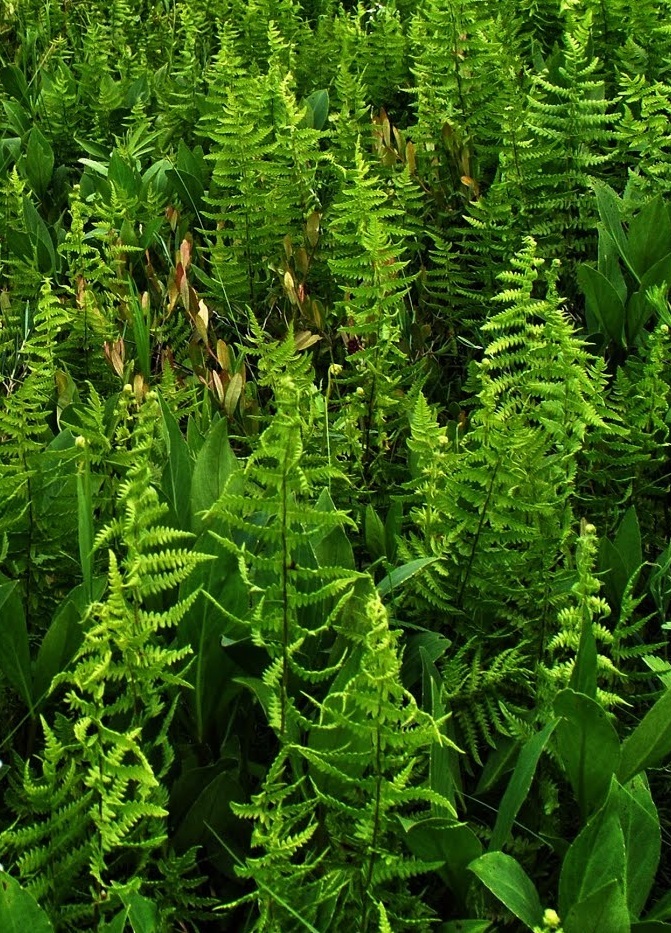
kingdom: Plantae
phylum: Tracheophyta
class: Polypodiopsida
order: Polypodiales
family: Thelypteridaceae
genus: Thelypteris
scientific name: Thelypteris palustris
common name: Marsh fern
